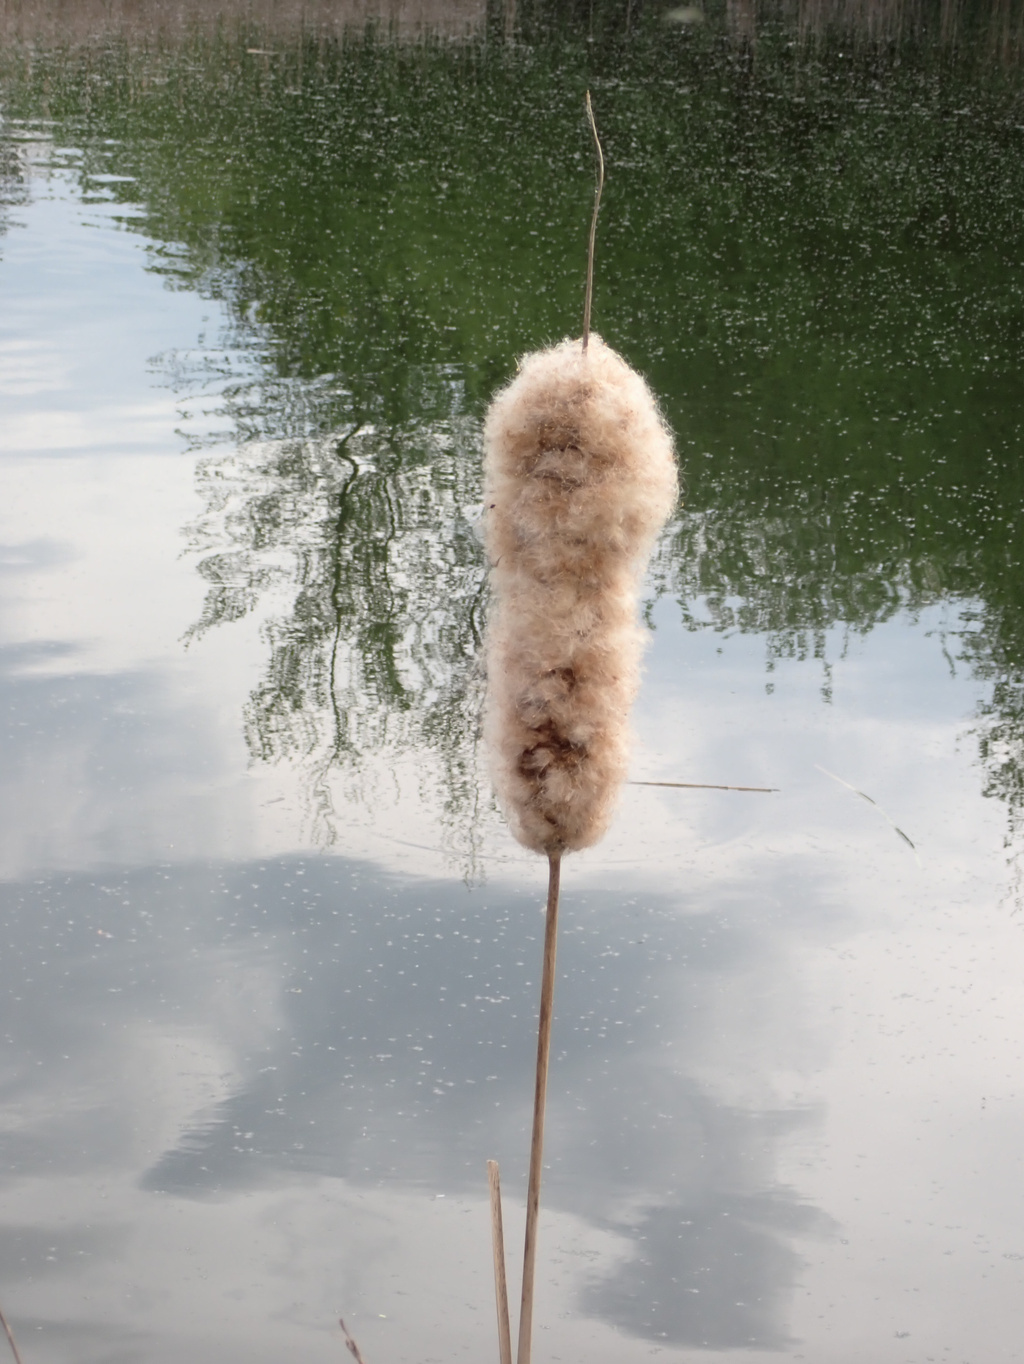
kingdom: Plantae
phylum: Tracheophyta
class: Liliopsida
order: Poales
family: Typhaceae
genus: Typha
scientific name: Typha latifolia
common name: Broadleaf cattail
